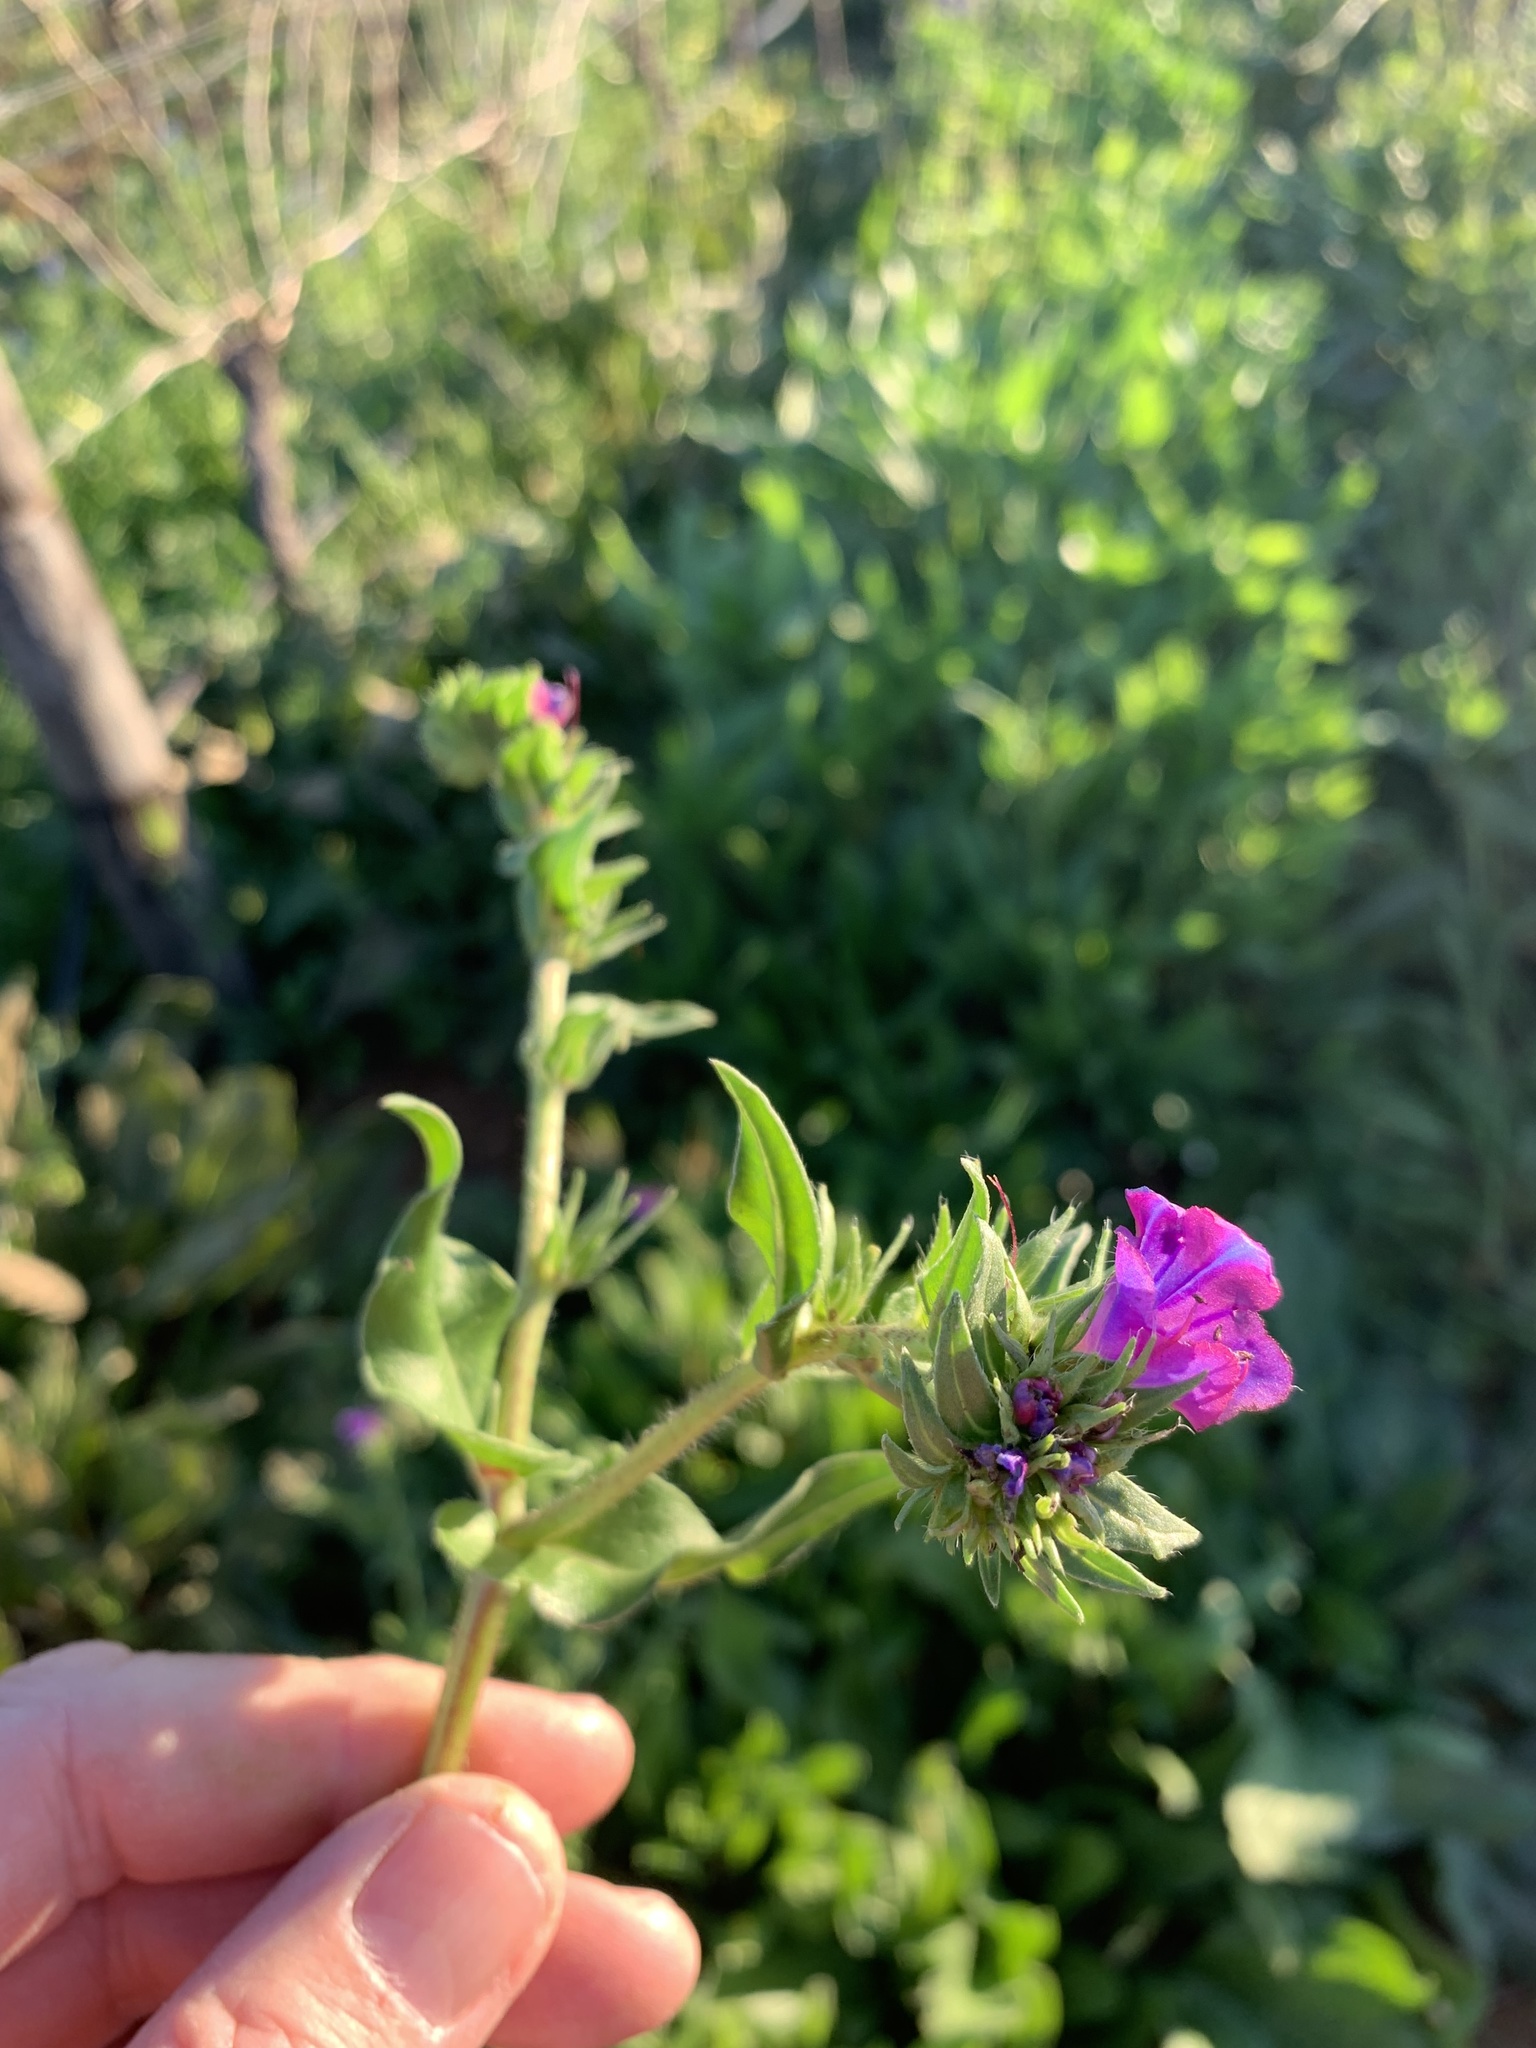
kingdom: Plantae
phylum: Tracheophyta
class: Magnoliopsida
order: Boraginales
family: Boraginaceae
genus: Echium
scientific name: Echium plantagineum
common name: Purple viper's-bugloss
